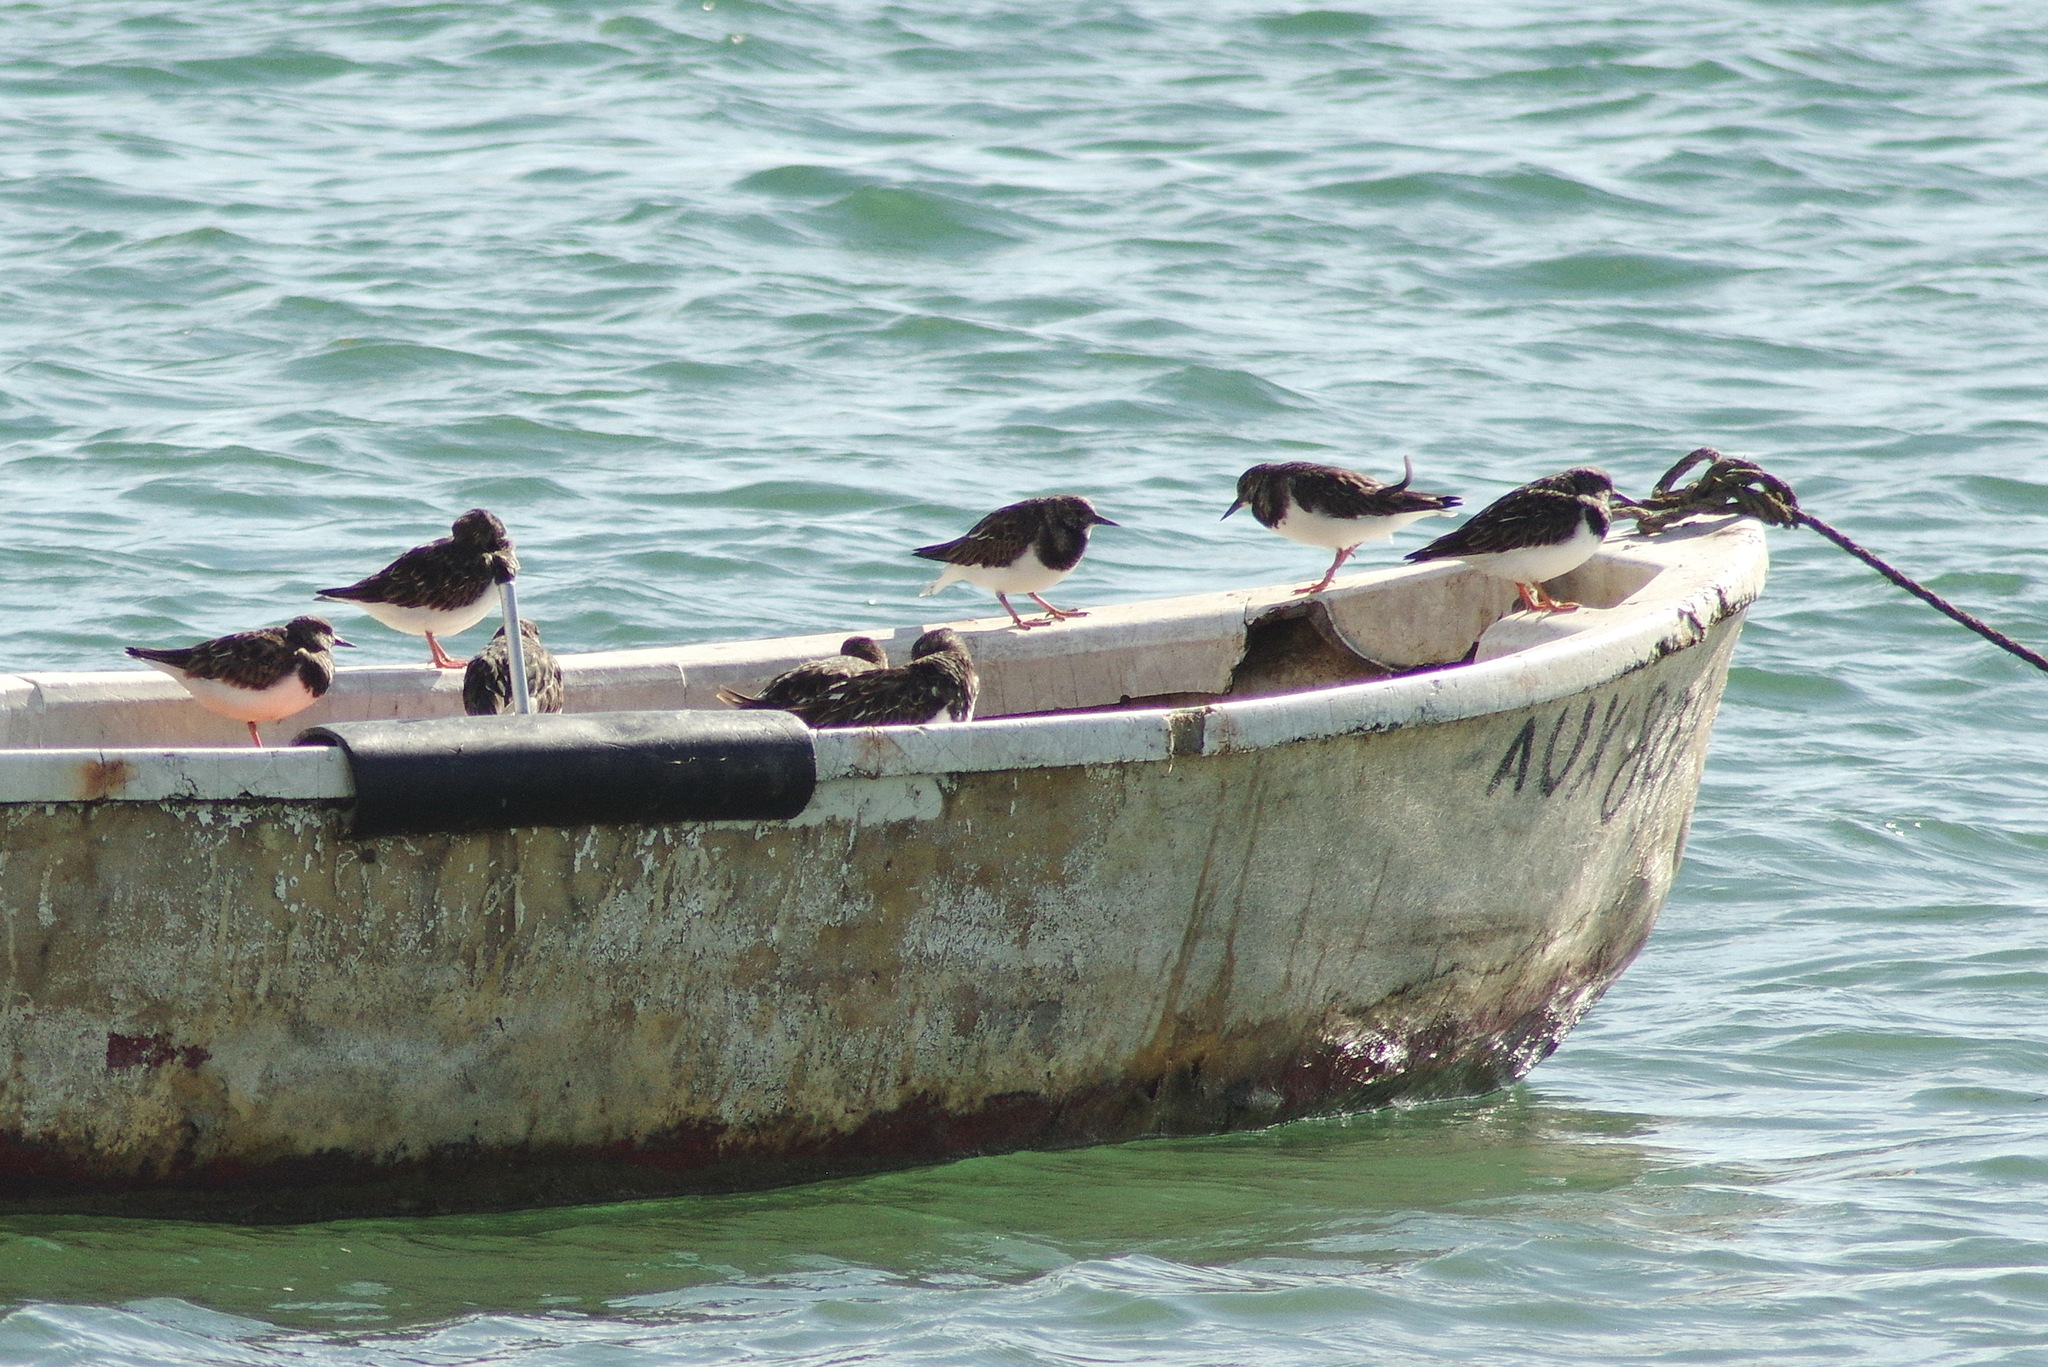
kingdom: Animalia
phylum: Chordata
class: Aves
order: Charadriiformes
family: Scolopacidae
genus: Arenaria
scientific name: Arenaria interpres
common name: Ruddy turnstone
